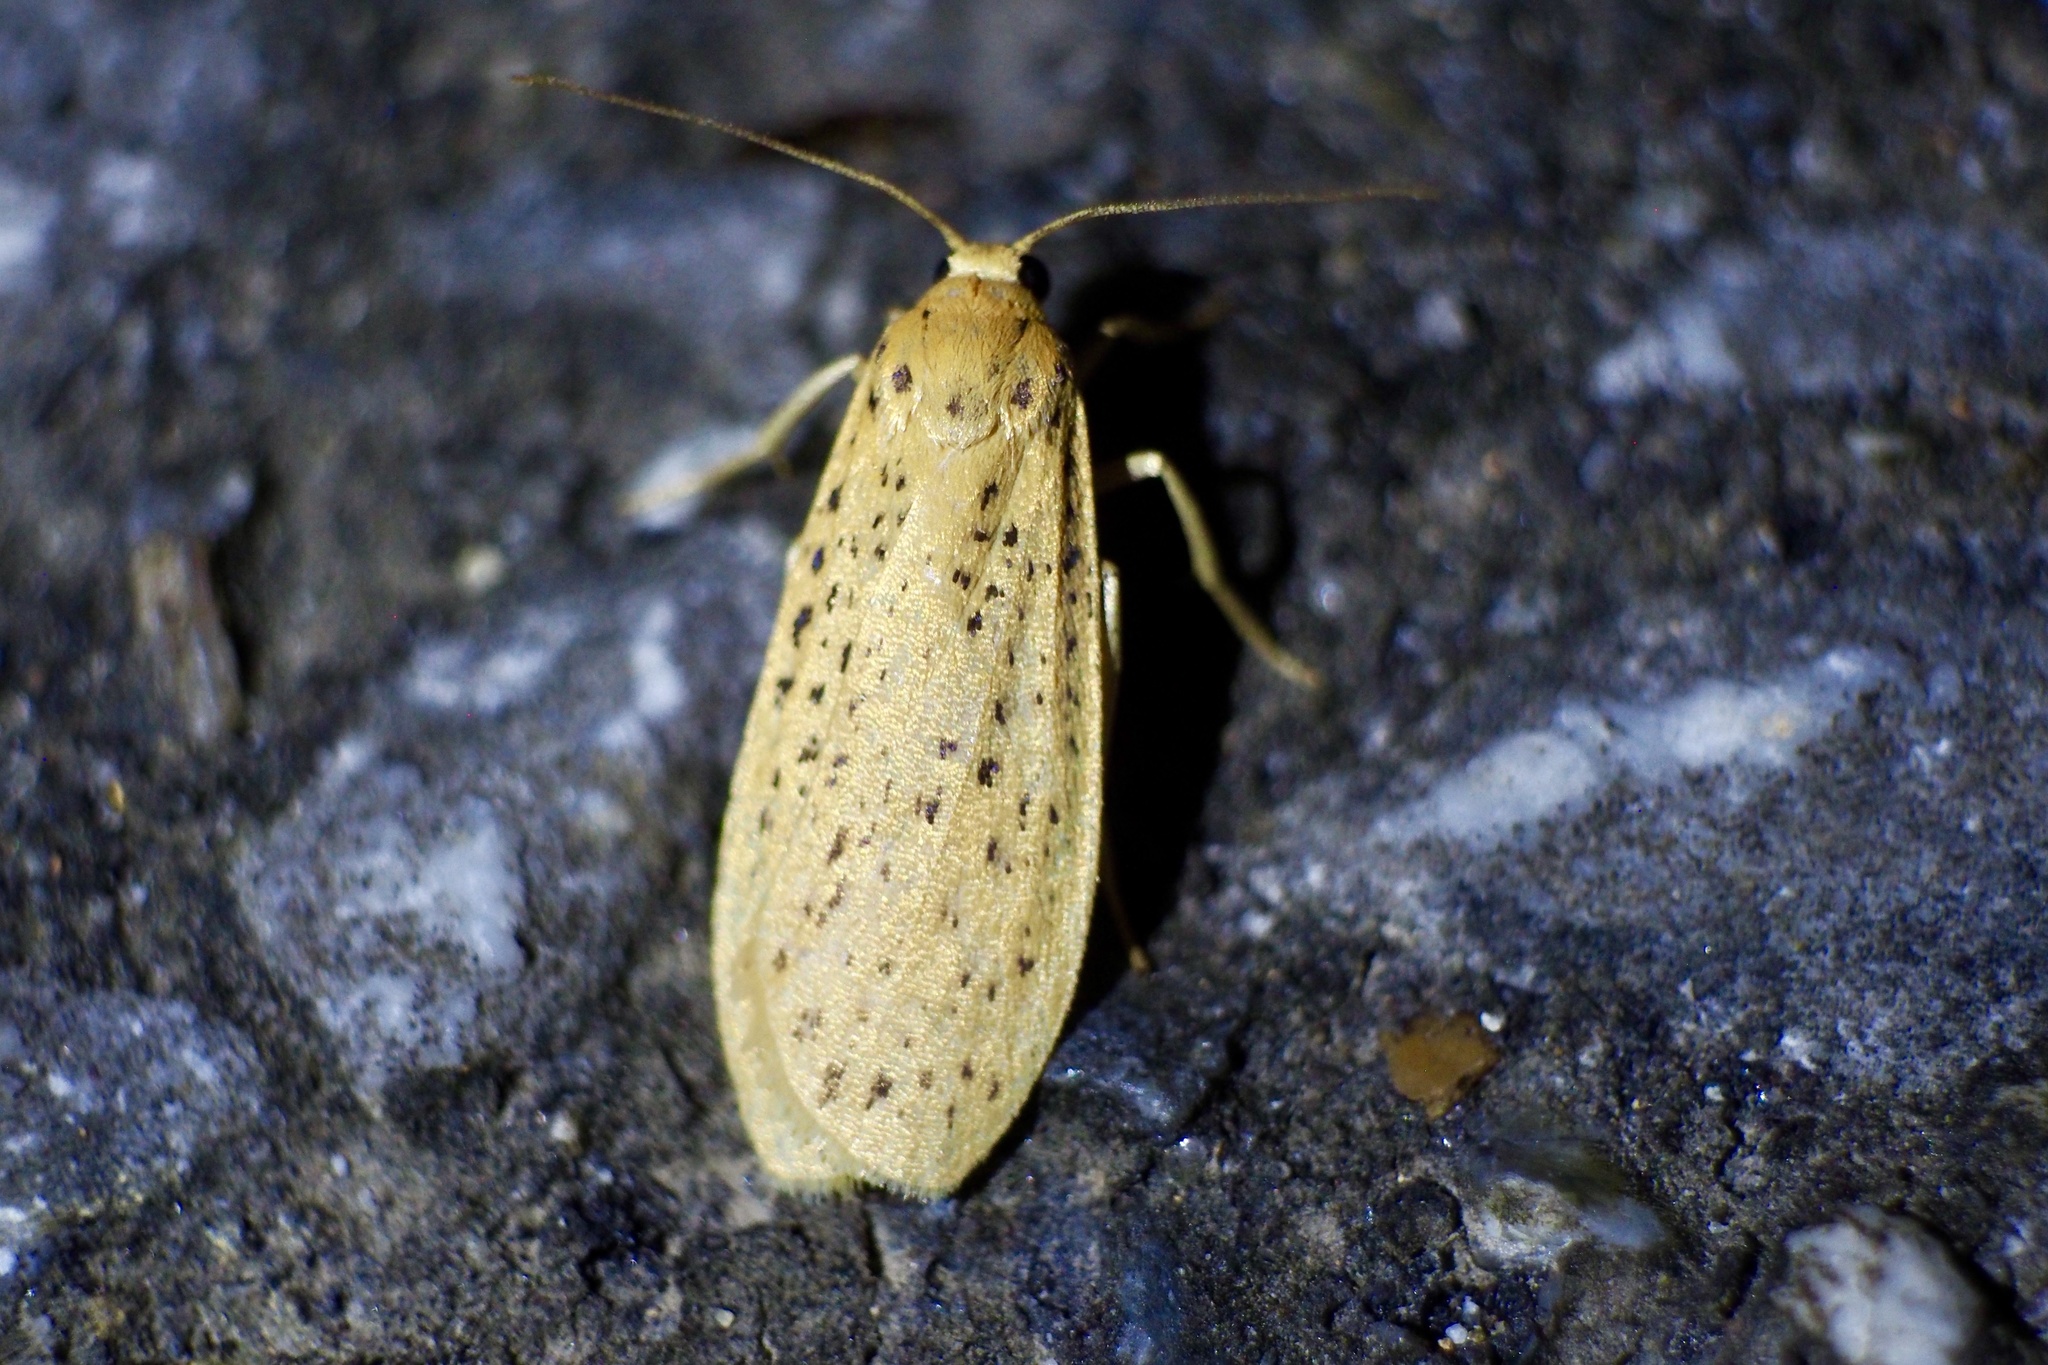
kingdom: Animalia
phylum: Arthropoda
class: Insecta
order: Lepidoptera
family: Erebidae
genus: Dolgoma
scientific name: Dolgoma cribrata
